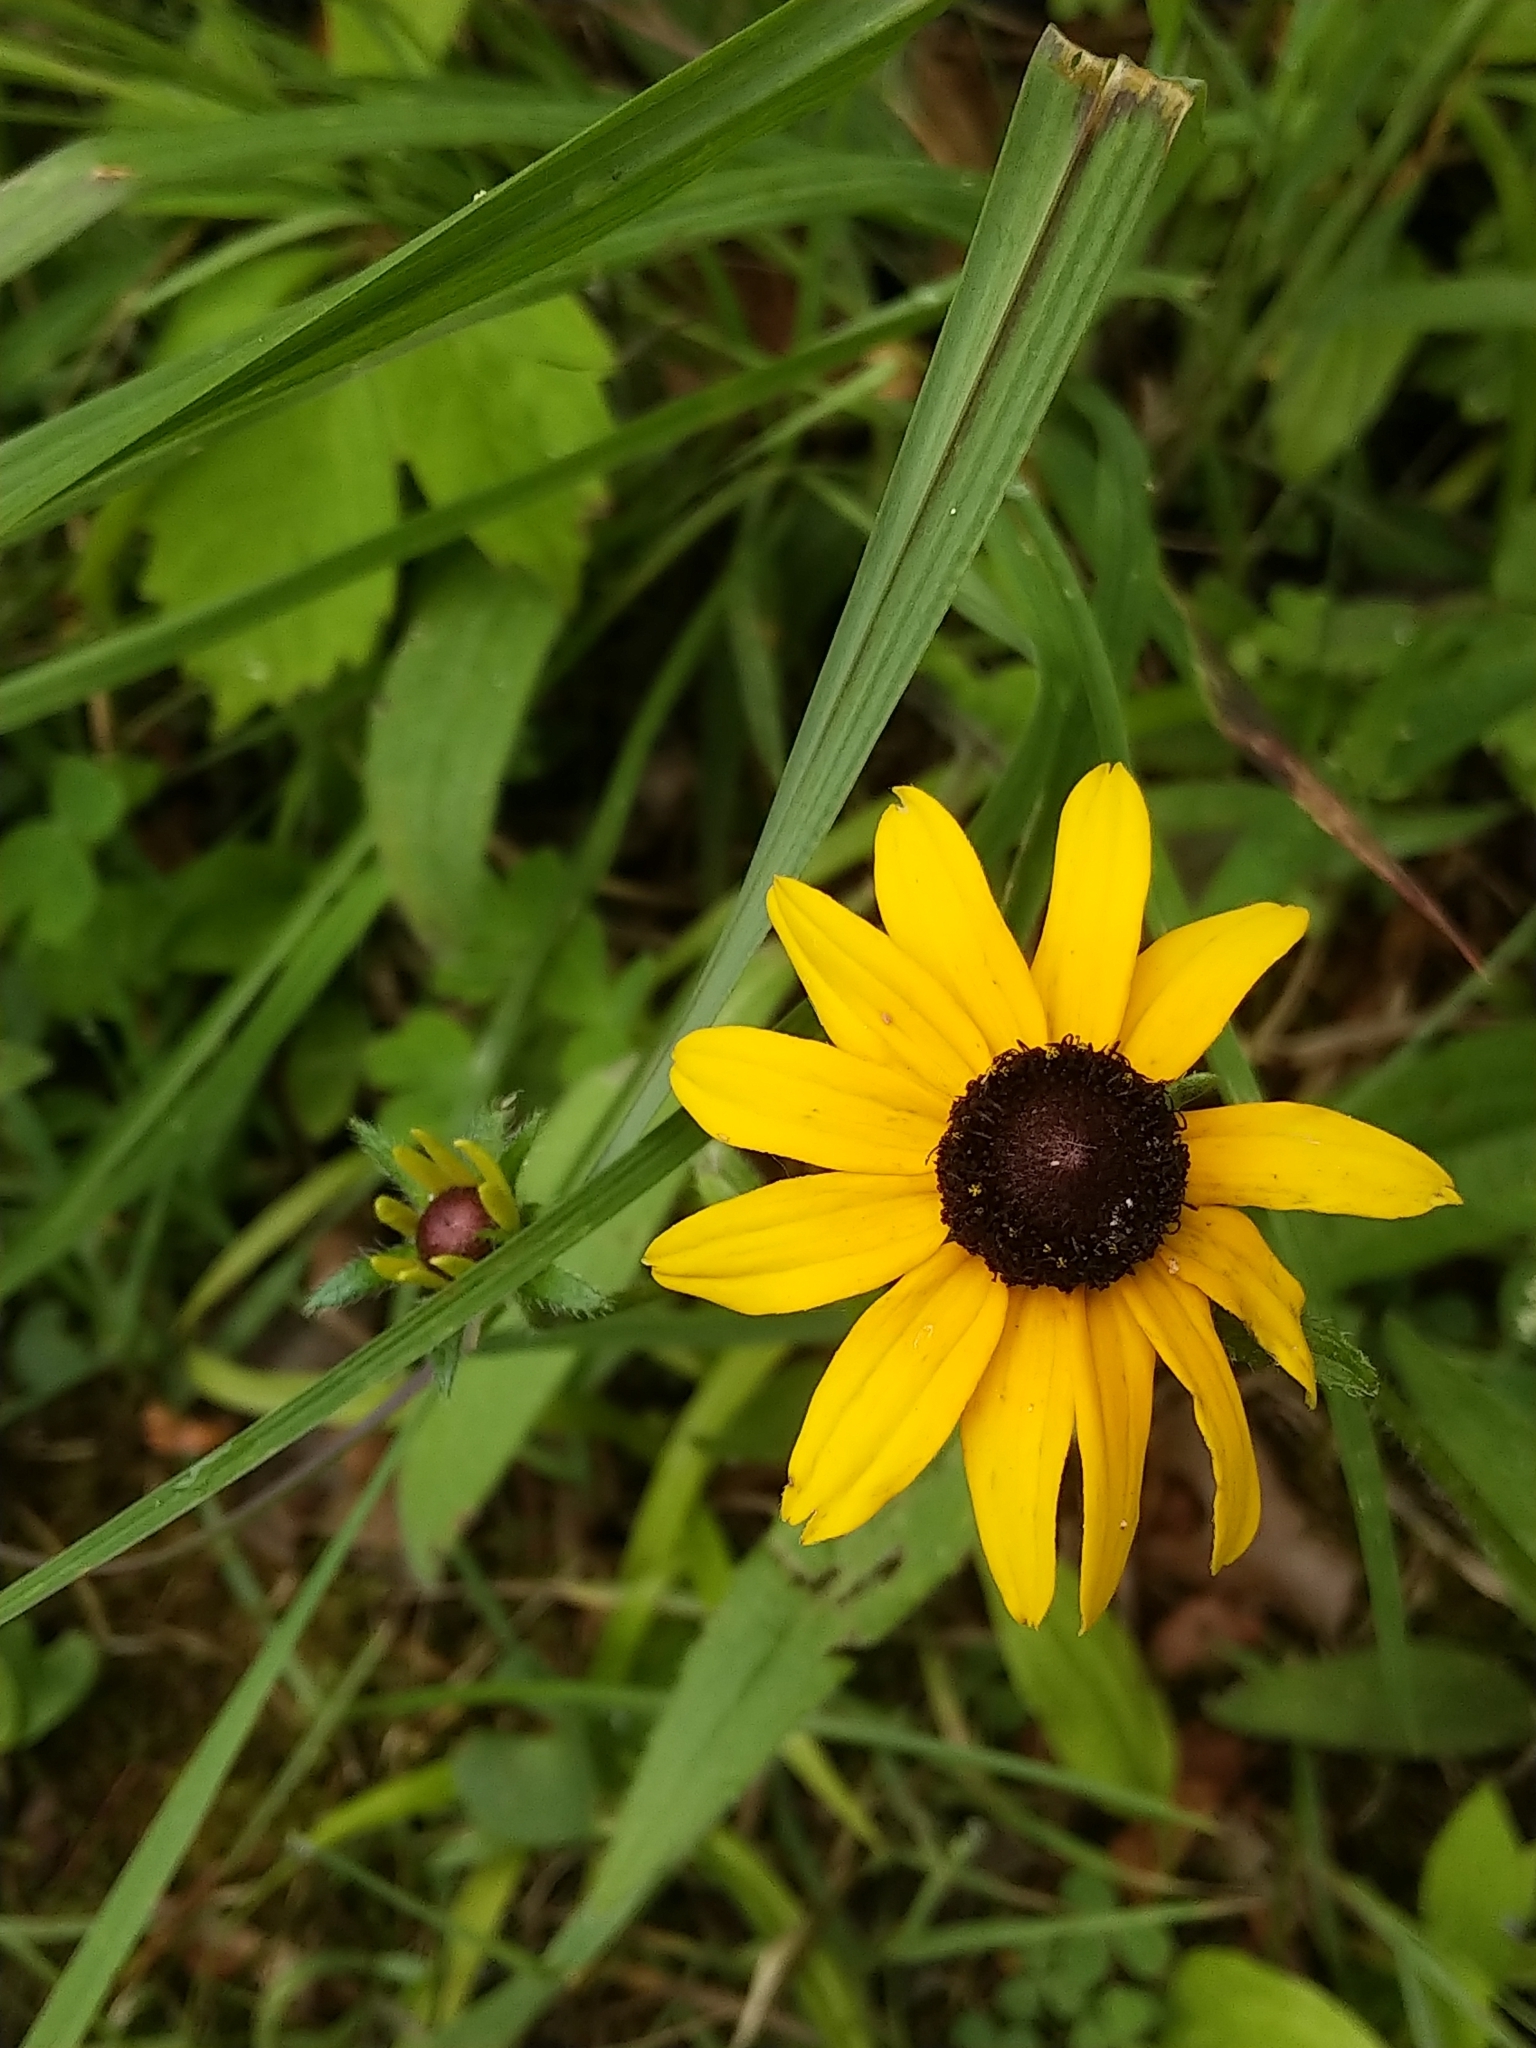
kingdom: Plantae
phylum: Tracheophyta
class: Magnoliopsida
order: Asterales
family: Asteraceae
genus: Rudbeckia
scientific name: Rudbeckia hirta
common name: Black-eyed-susan
